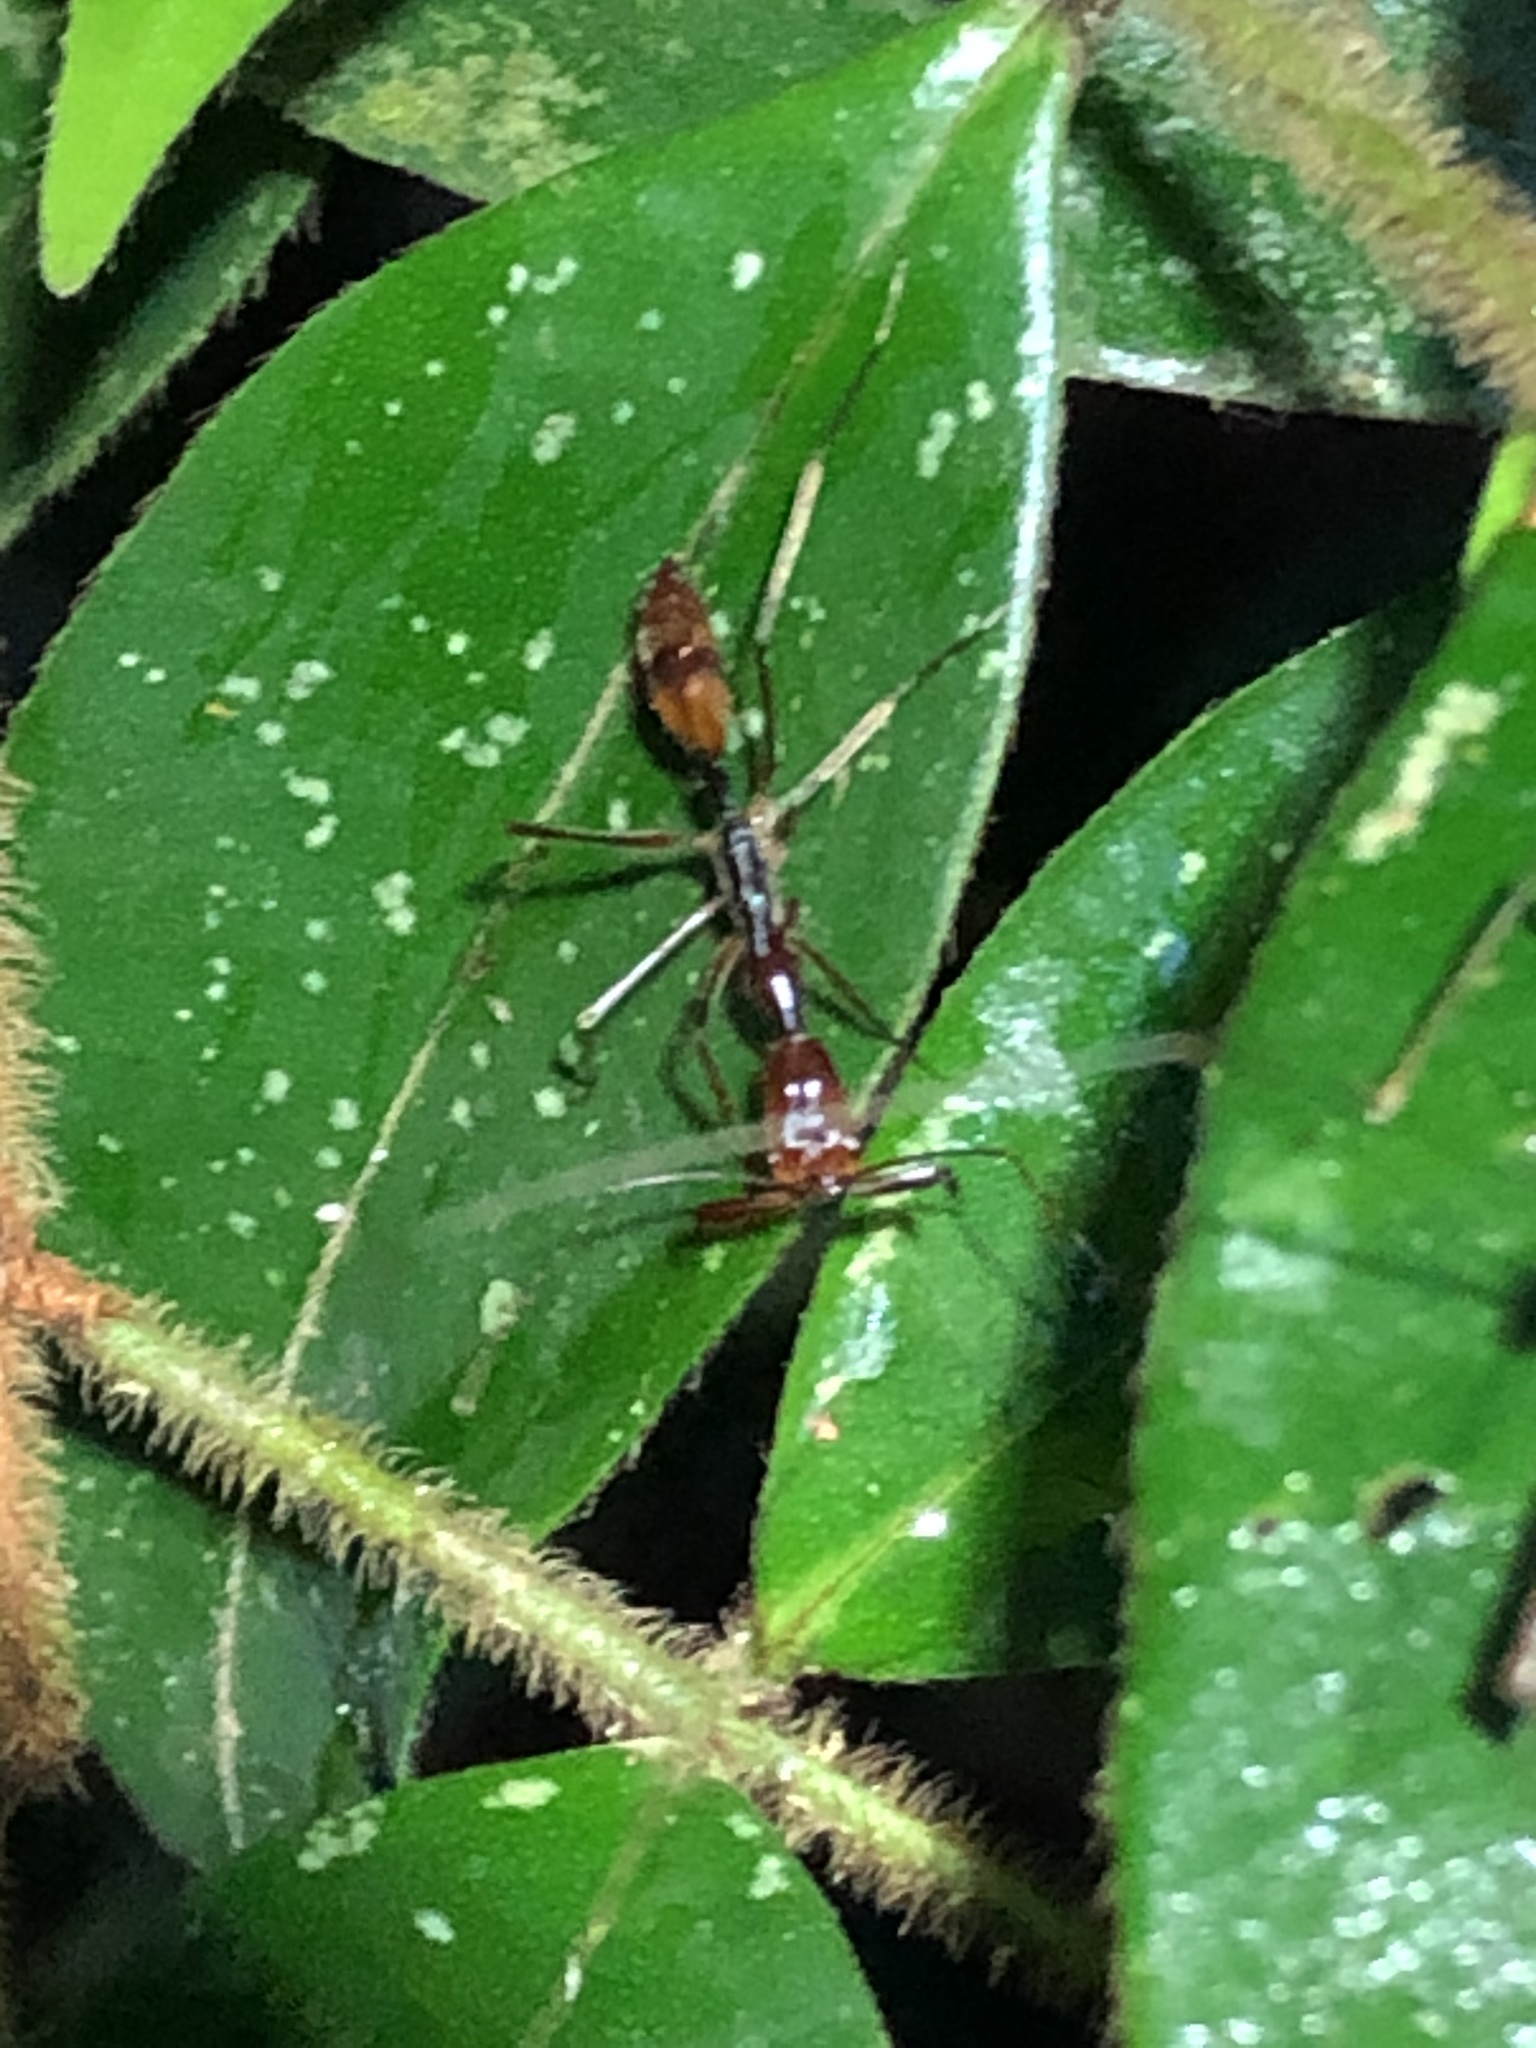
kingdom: Animalia
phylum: Arthropoda
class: Insecta
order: Hymenoptera
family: Formicidae
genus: Odontomachus
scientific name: Odontomachus hastatus
